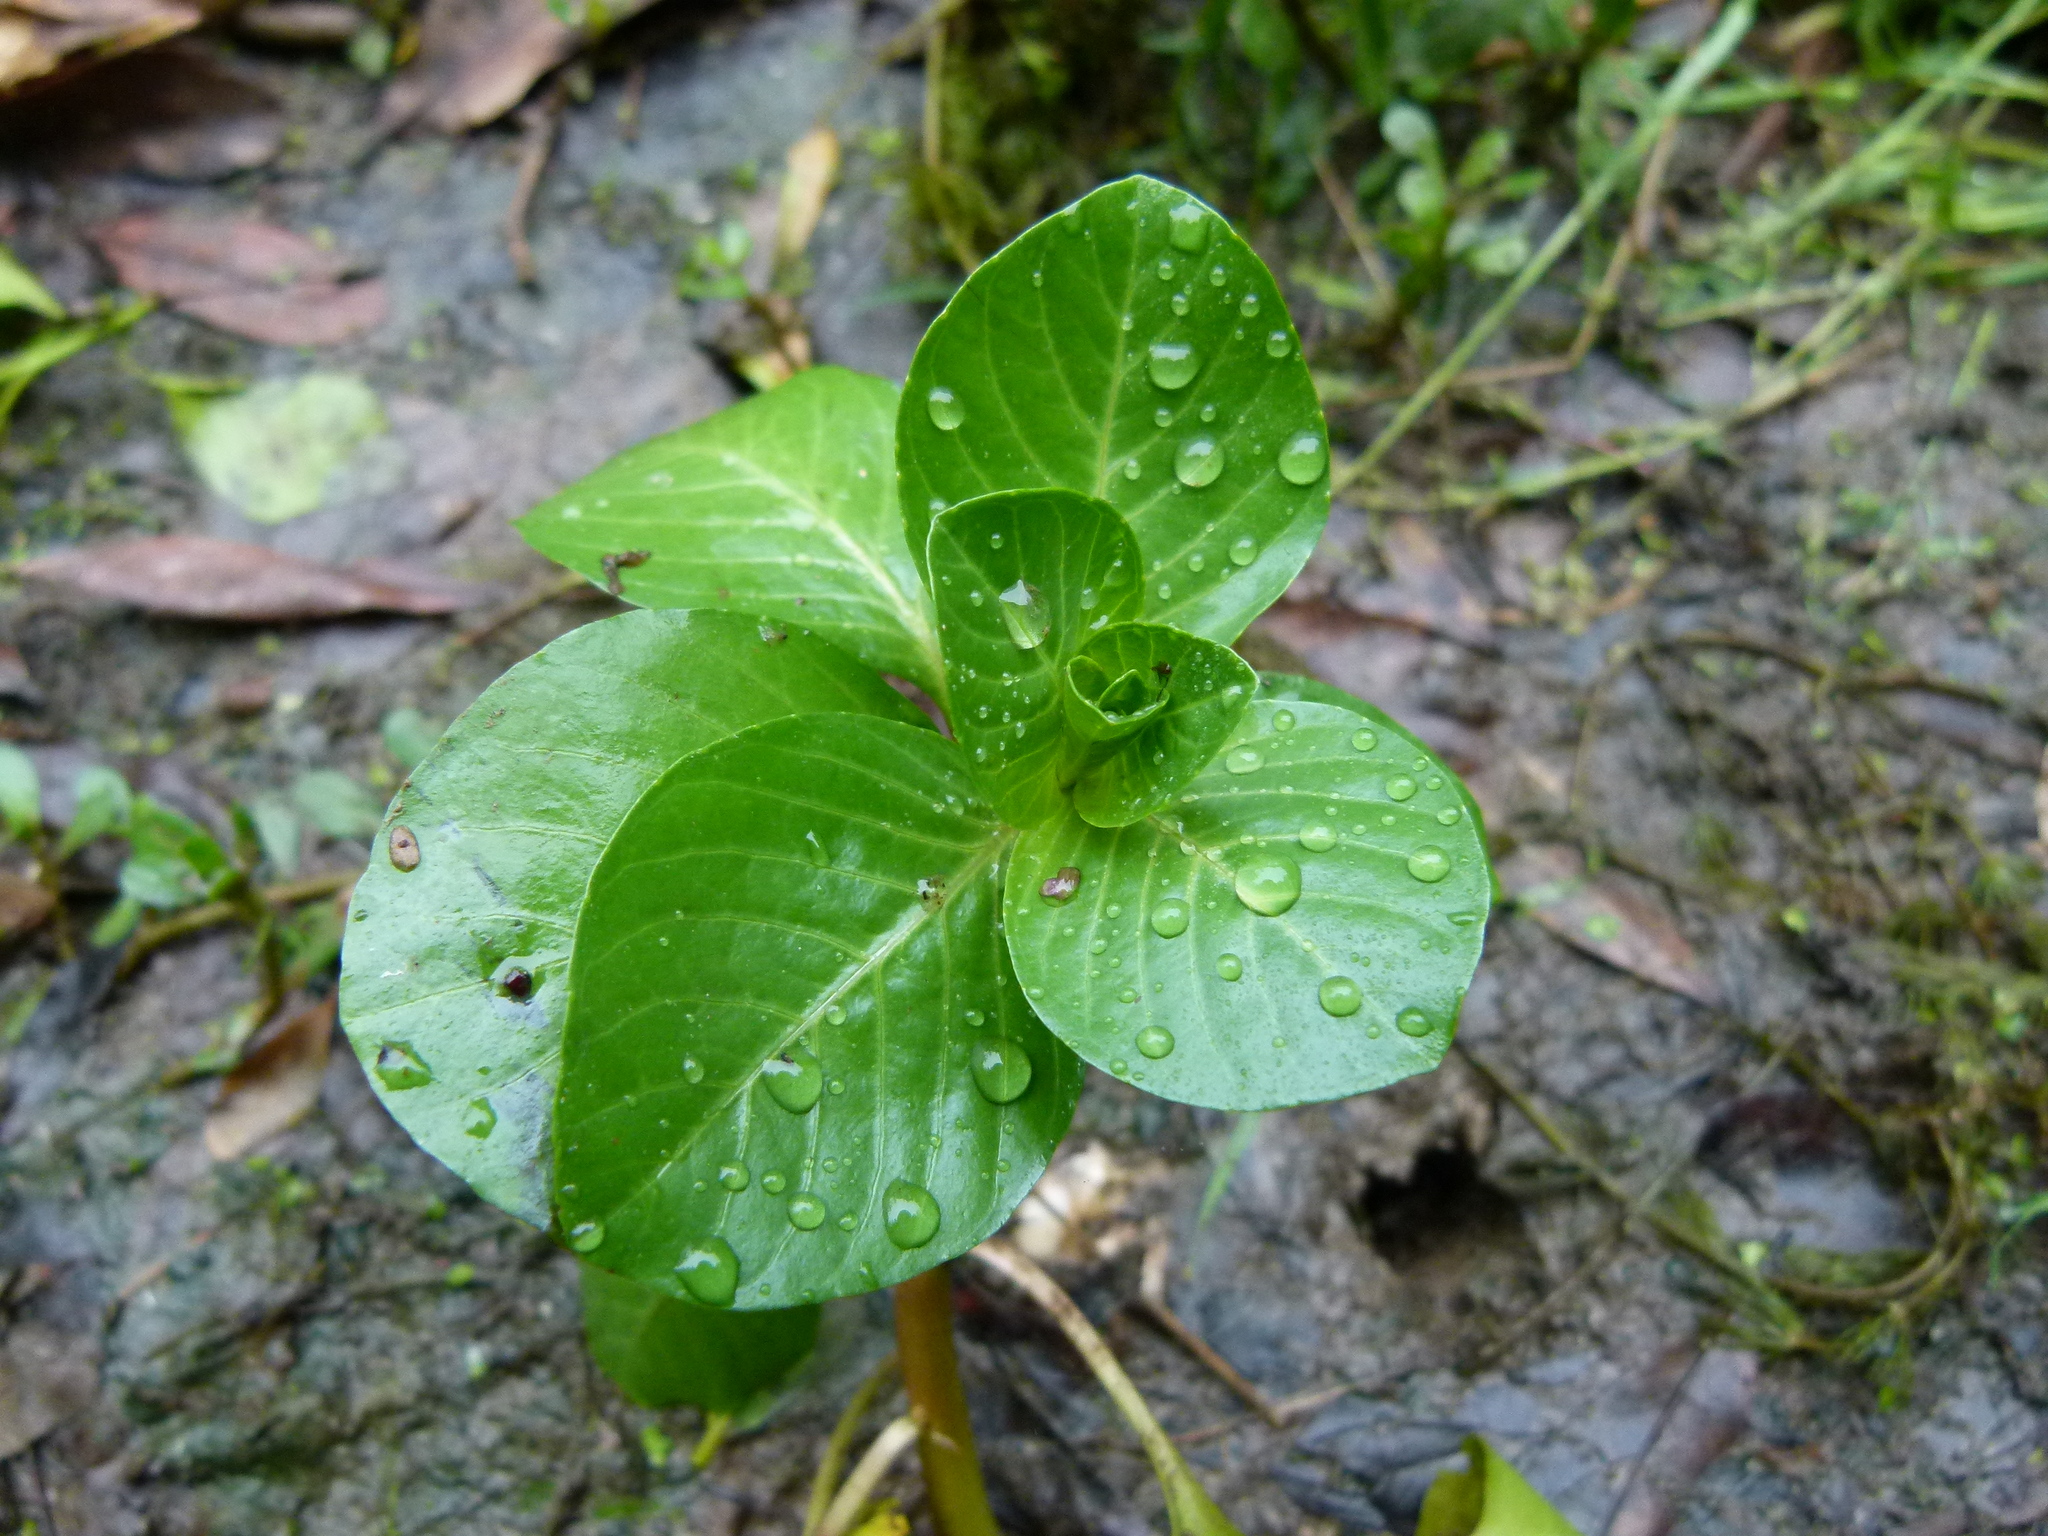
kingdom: Plantae
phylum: Tracheophyta
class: Magnoliopsida
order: Myrtales
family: Onagraceae
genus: Ludwigia
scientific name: Ludwigia peploides
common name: Floating primrose-willow
